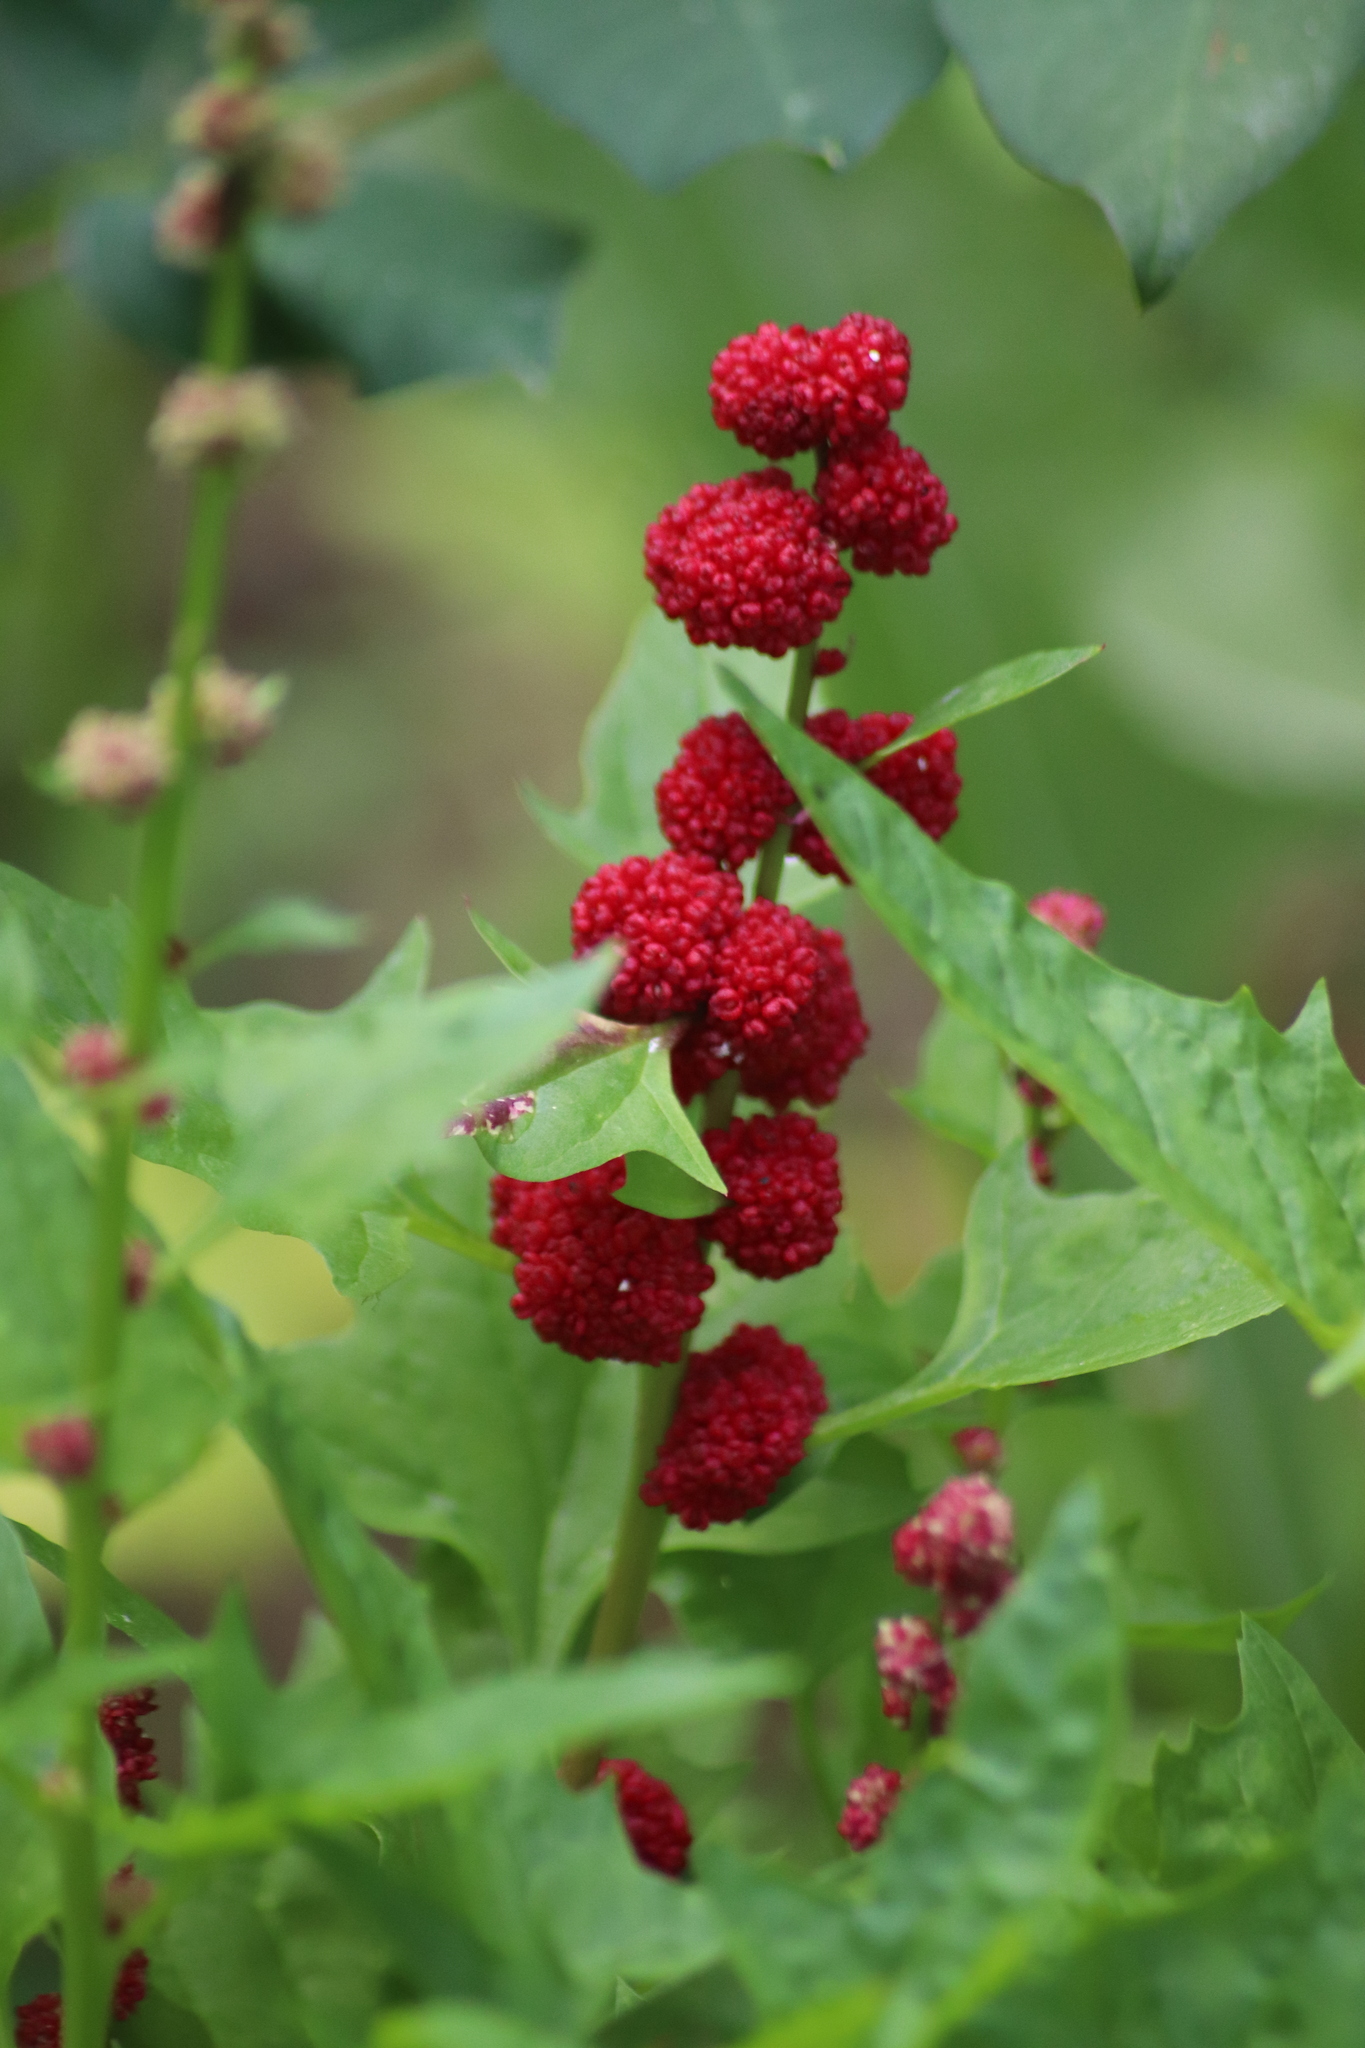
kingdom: Plantae
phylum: Tracheophyta
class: Magnoliopsida
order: Caryophyllales
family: Amaranthaceae
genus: Blitum
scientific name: Blitum capitatum
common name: Strawberry-blight
